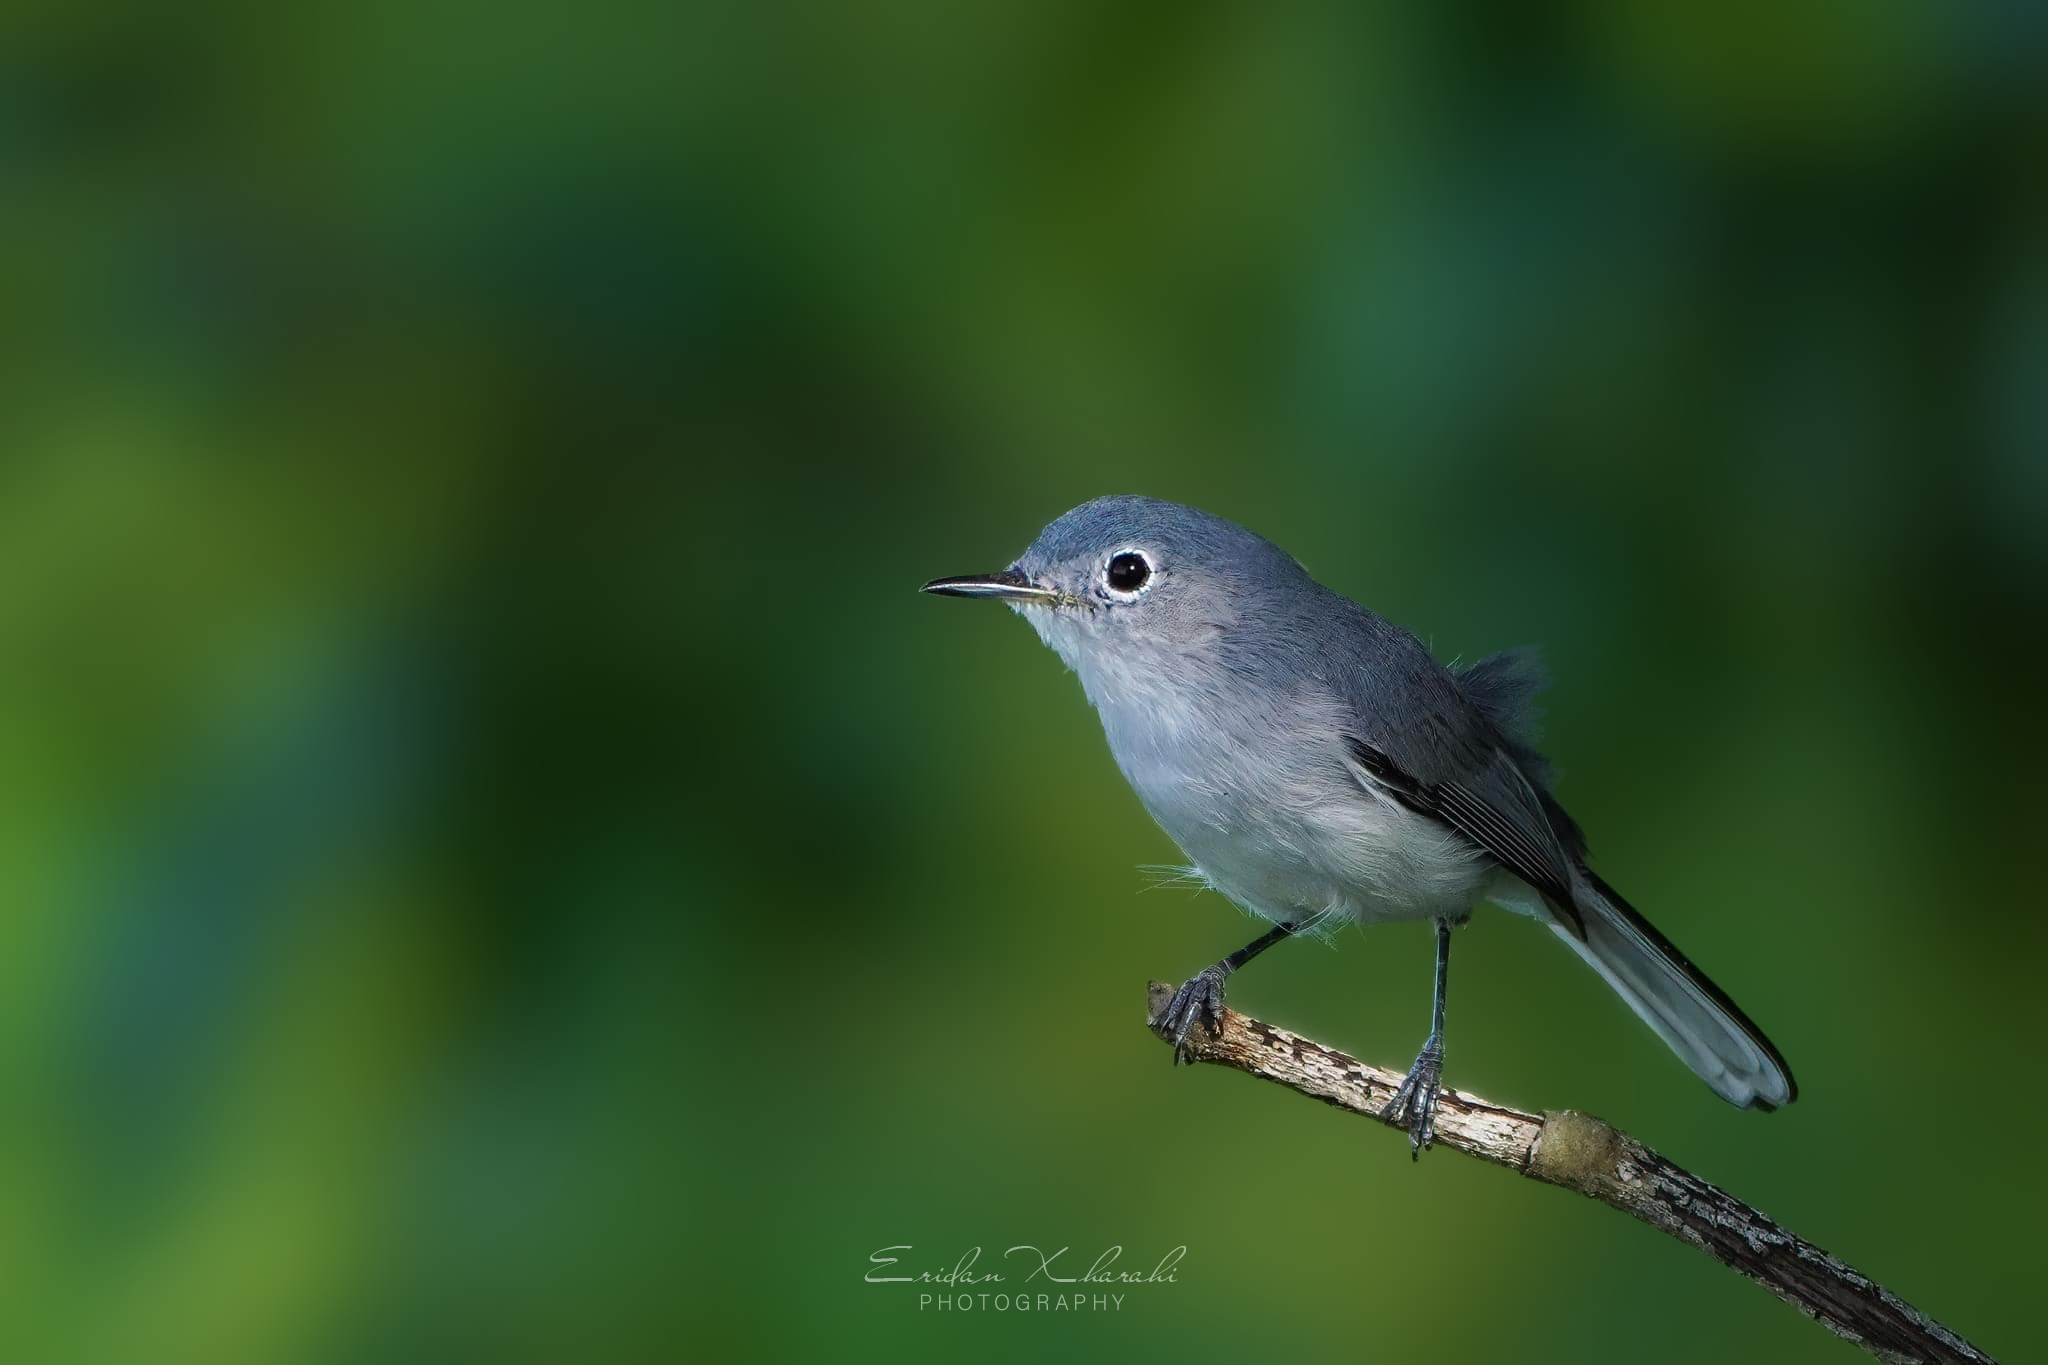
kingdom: Animalia
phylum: Chordata
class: Aves
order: Passeriformes
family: Polioptilidae
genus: Polioptila
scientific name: Polioptila caerulea
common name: Blue-gray gnatcatcher
